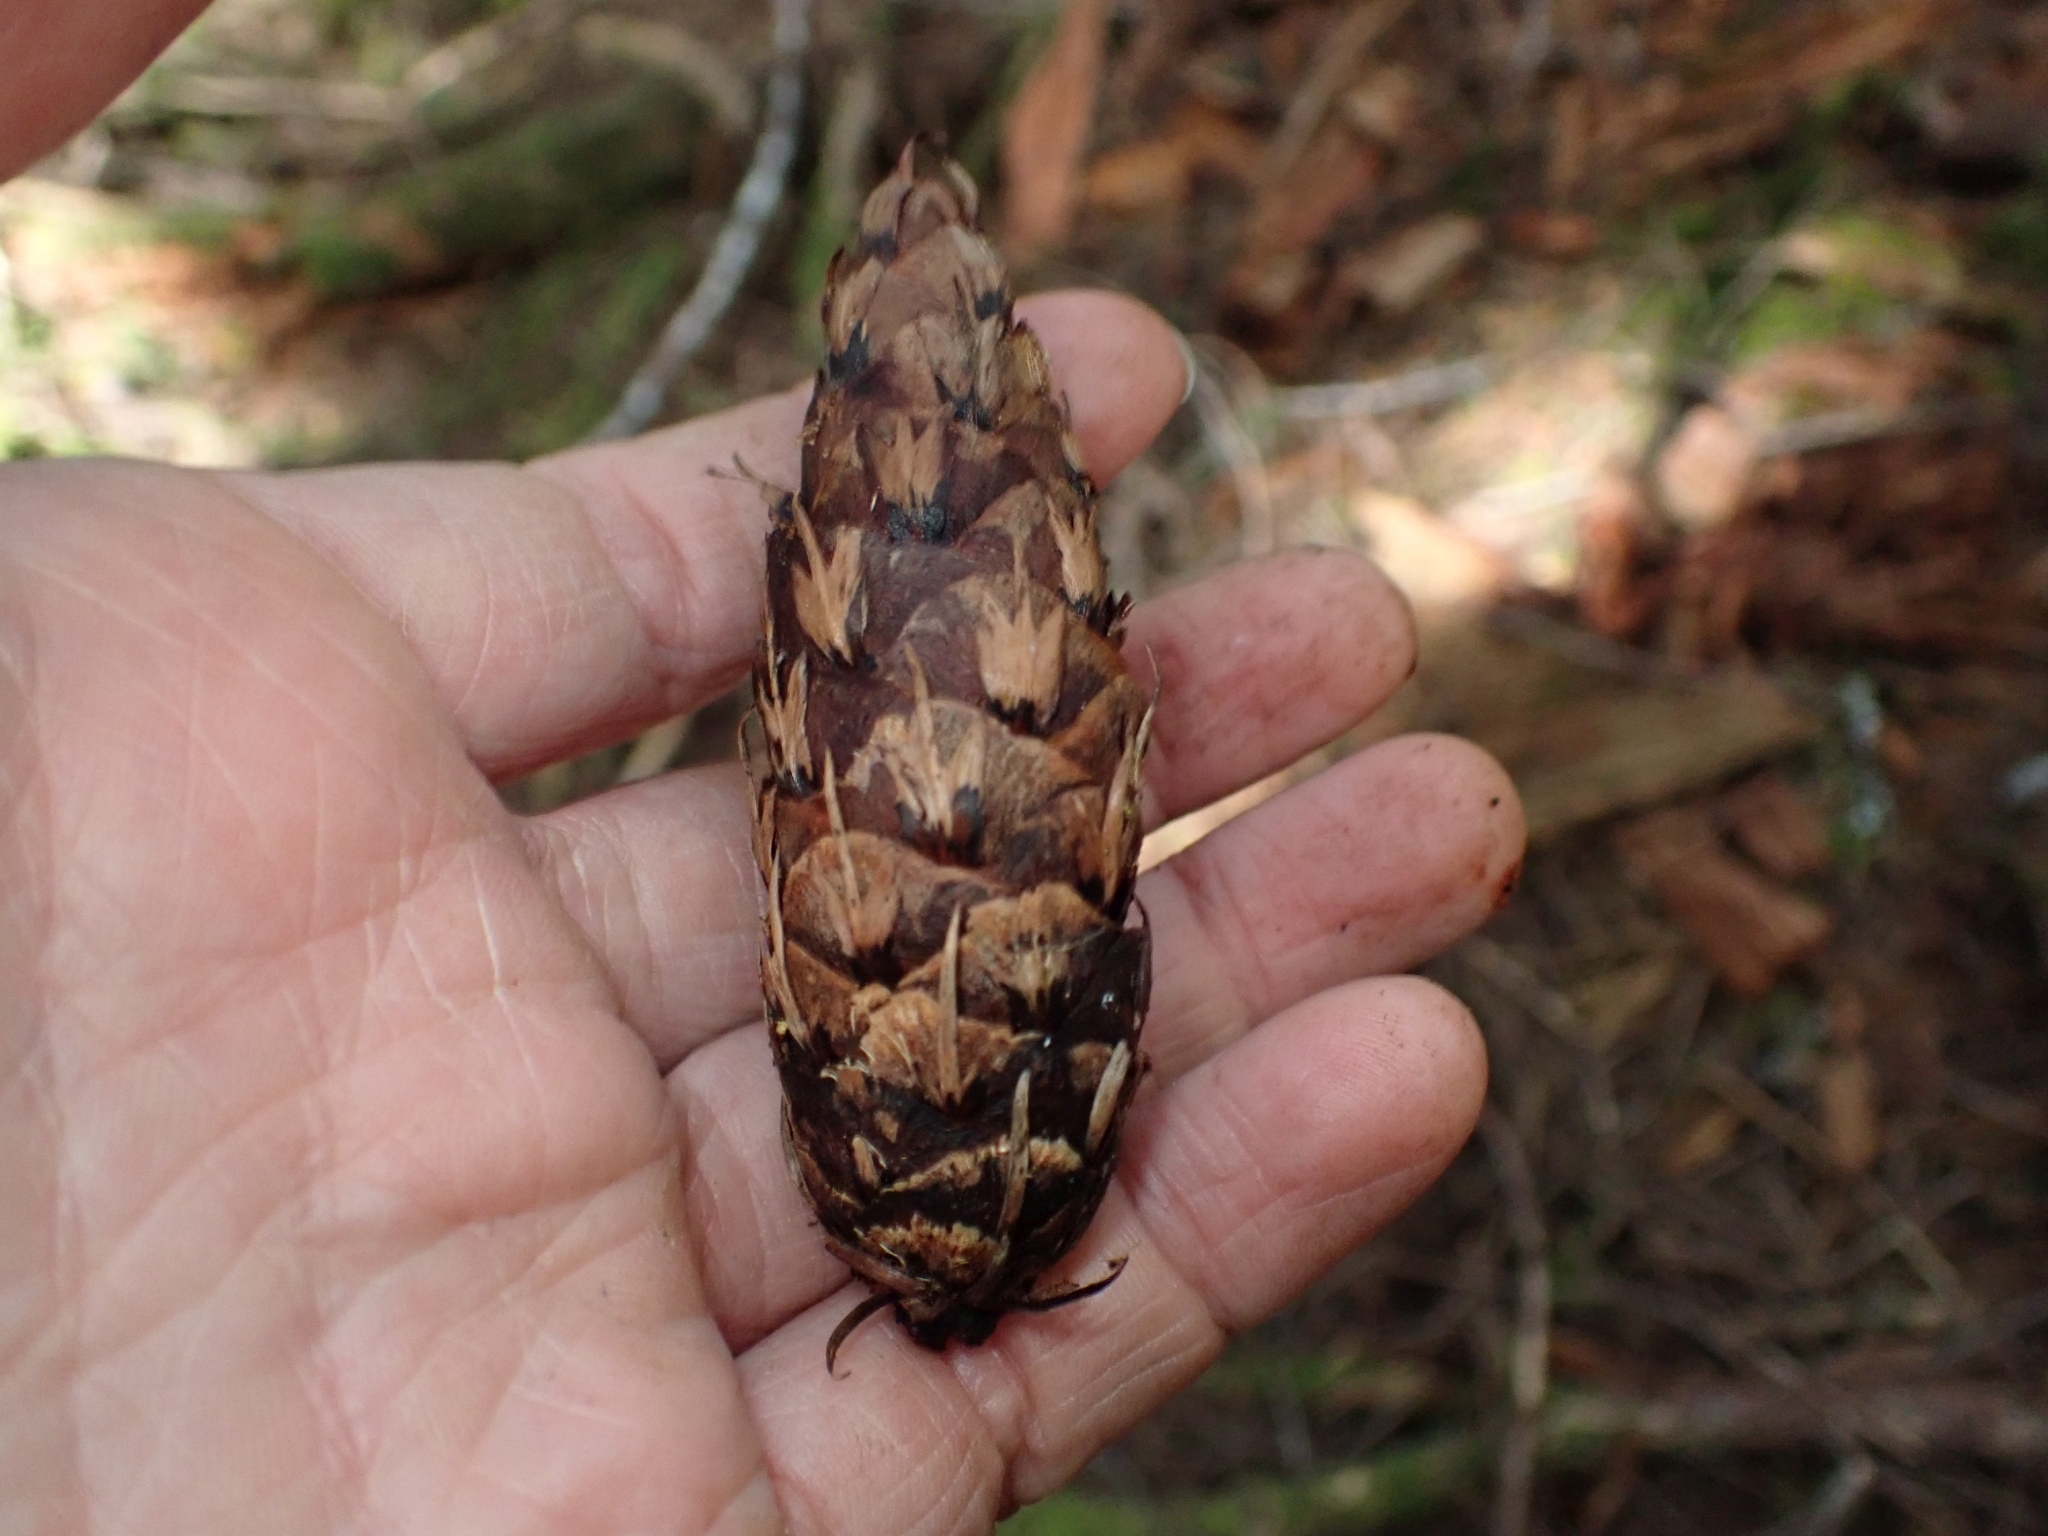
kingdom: Plantae
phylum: Tracheophyta
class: Pinopsida
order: Pinales
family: Pinaceae
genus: Pseudotsuga
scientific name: Pseudotsuga menziesii
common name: Douglas fir
